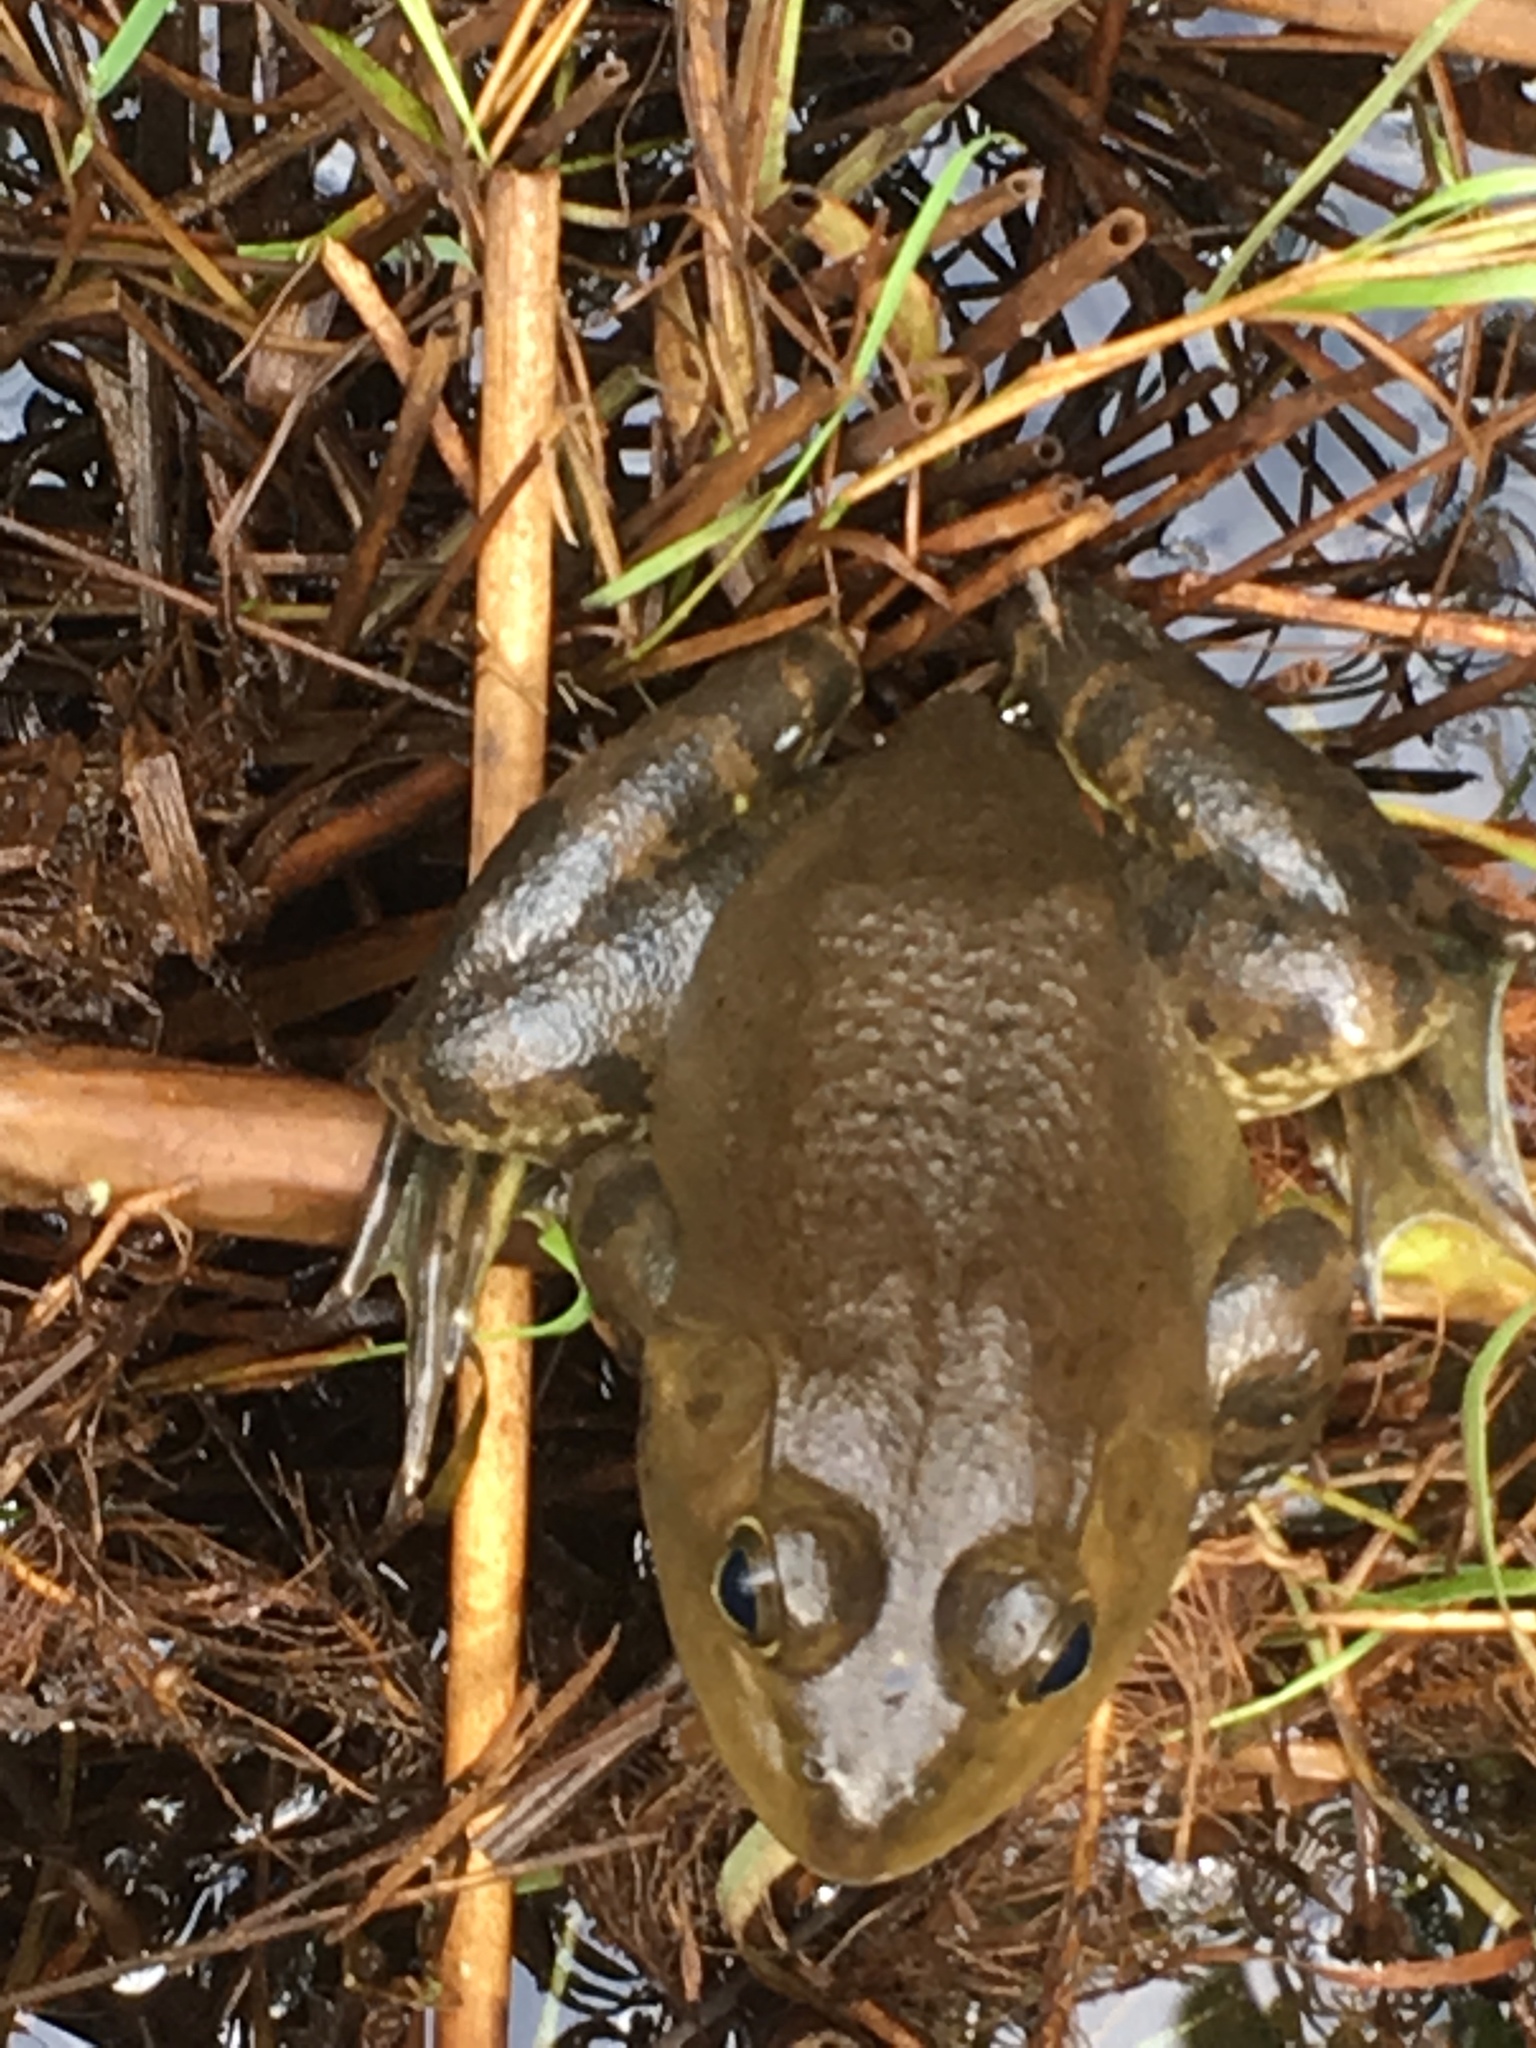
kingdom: Animalia
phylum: Chordata
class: Amphibia
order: Anura
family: Ranidae
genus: Lithobates
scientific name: Lithobates catesbeianus
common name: American bullfrog
